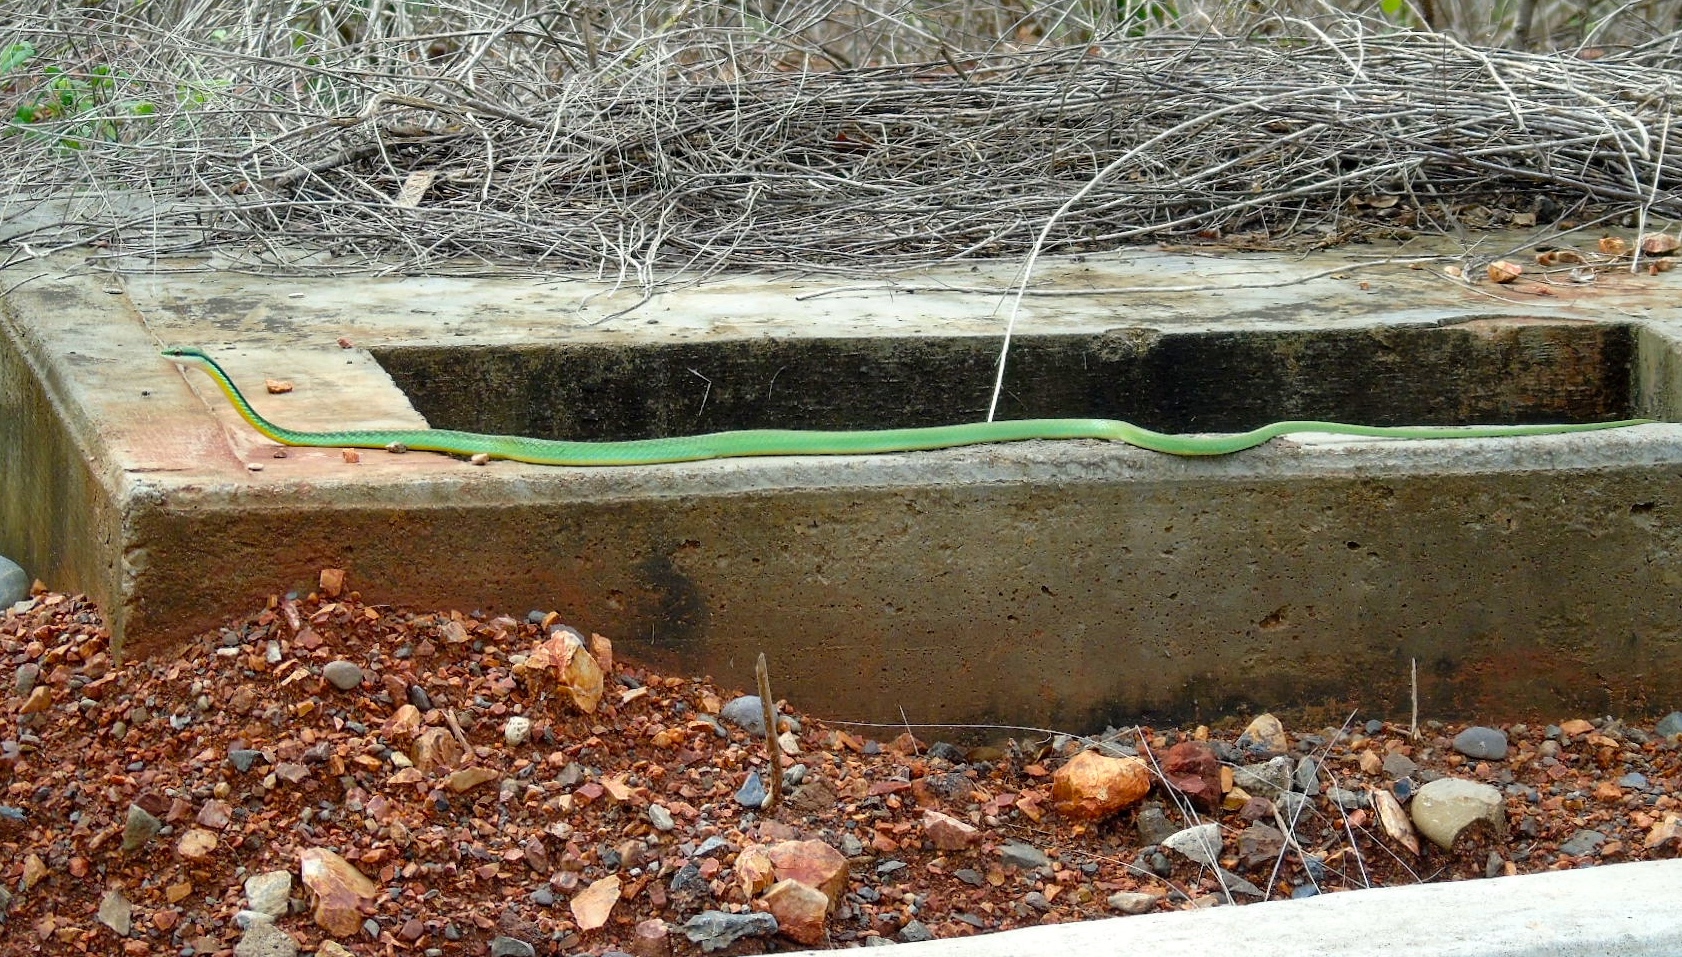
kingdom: Animalia
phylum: Chordata
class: Squamata
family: Colubridae
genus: Leptophis
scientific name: Leptophis diplotropis
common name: Pacific coast parrot snake
